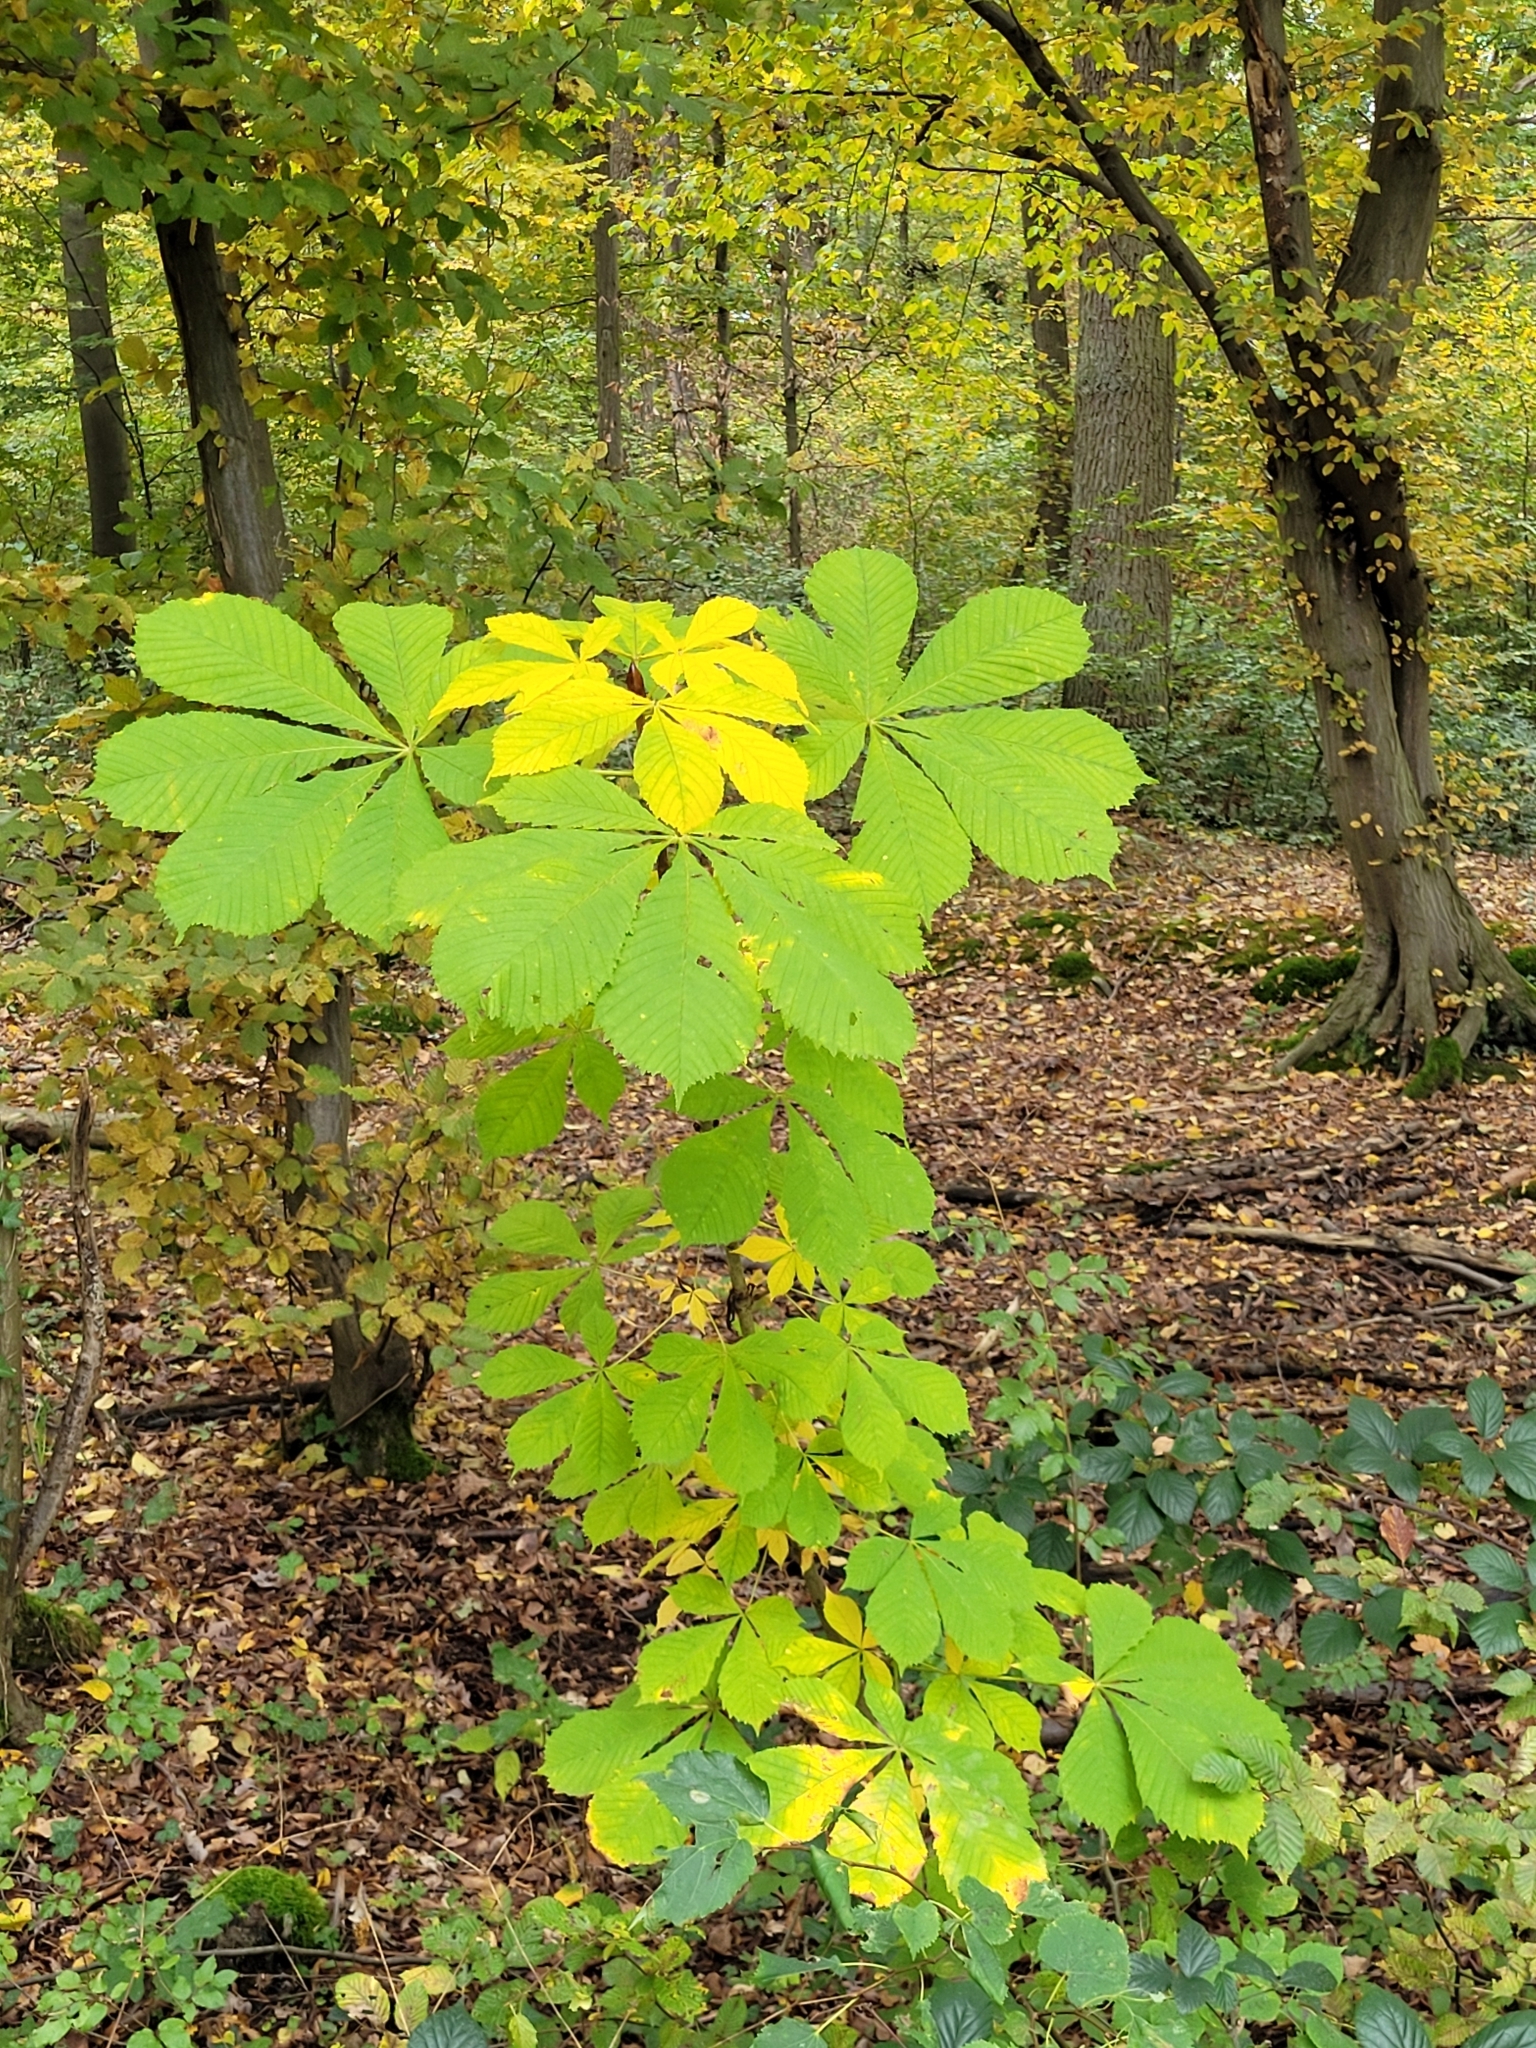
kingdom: Plantae
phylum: Tracheophyta
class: Magnoliopsida
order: Sapindales
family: Sapindaceae
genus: Aesculus
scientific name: Aesculus hippocastanum
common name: Horse-chestnut
